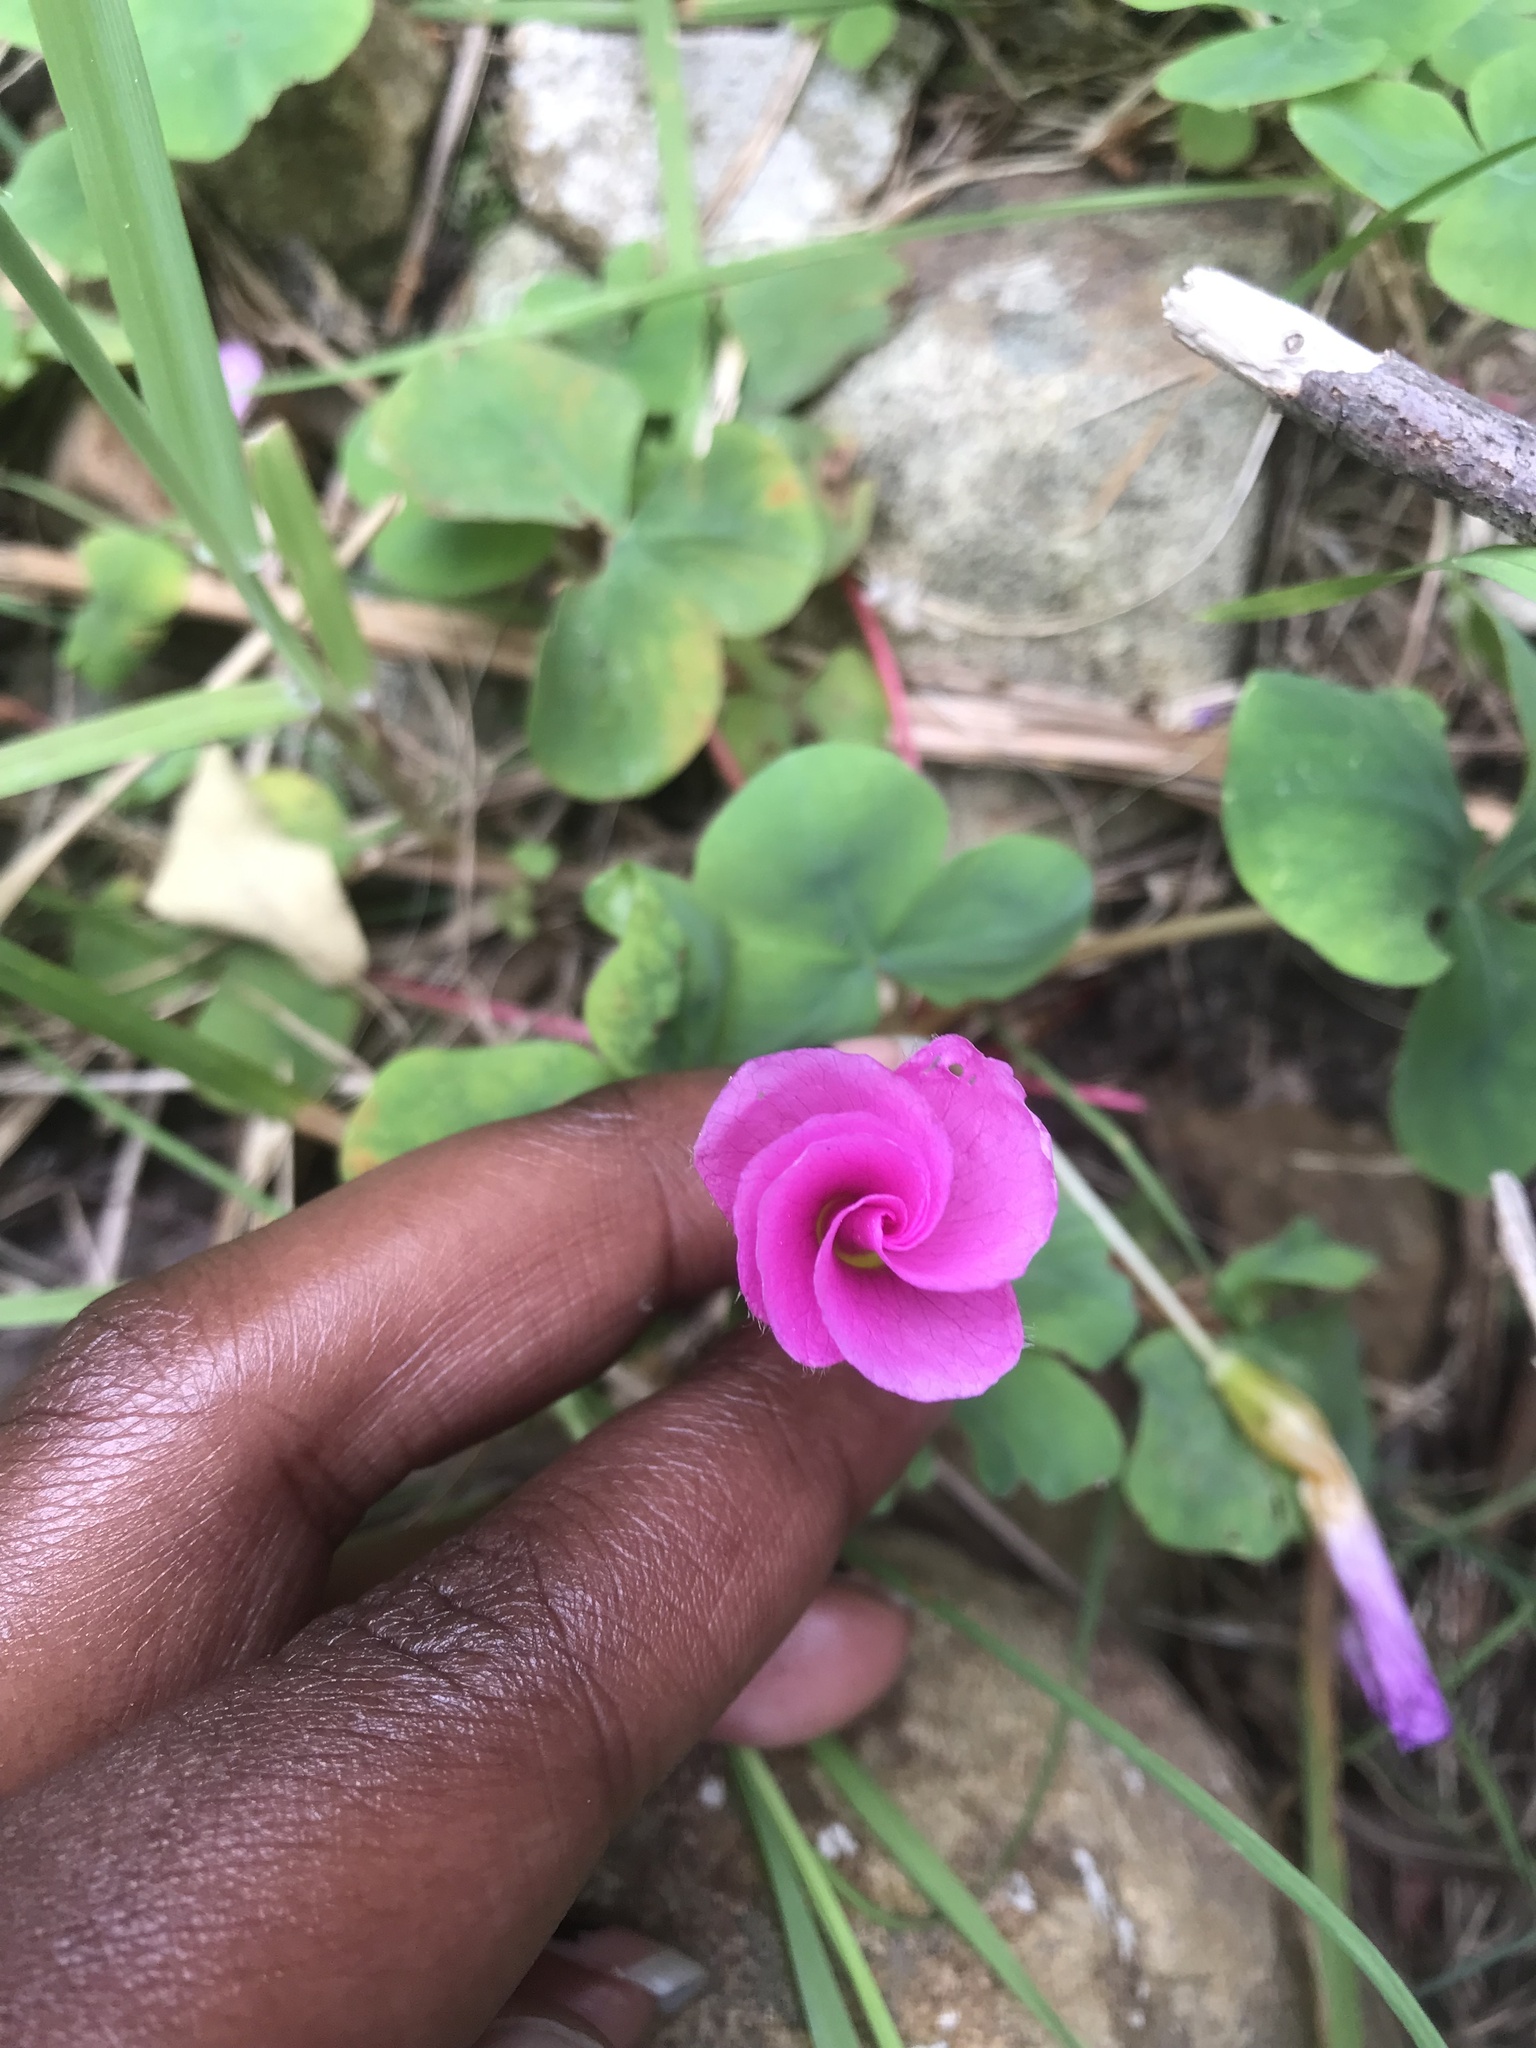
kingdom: Plantae
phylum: Tracheophyta
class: Magnoliopsida
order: Oxalidales
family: Oxalidaceae
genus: Oxalis
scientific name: Oxalis purpurea
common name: Purple woodsorrel
